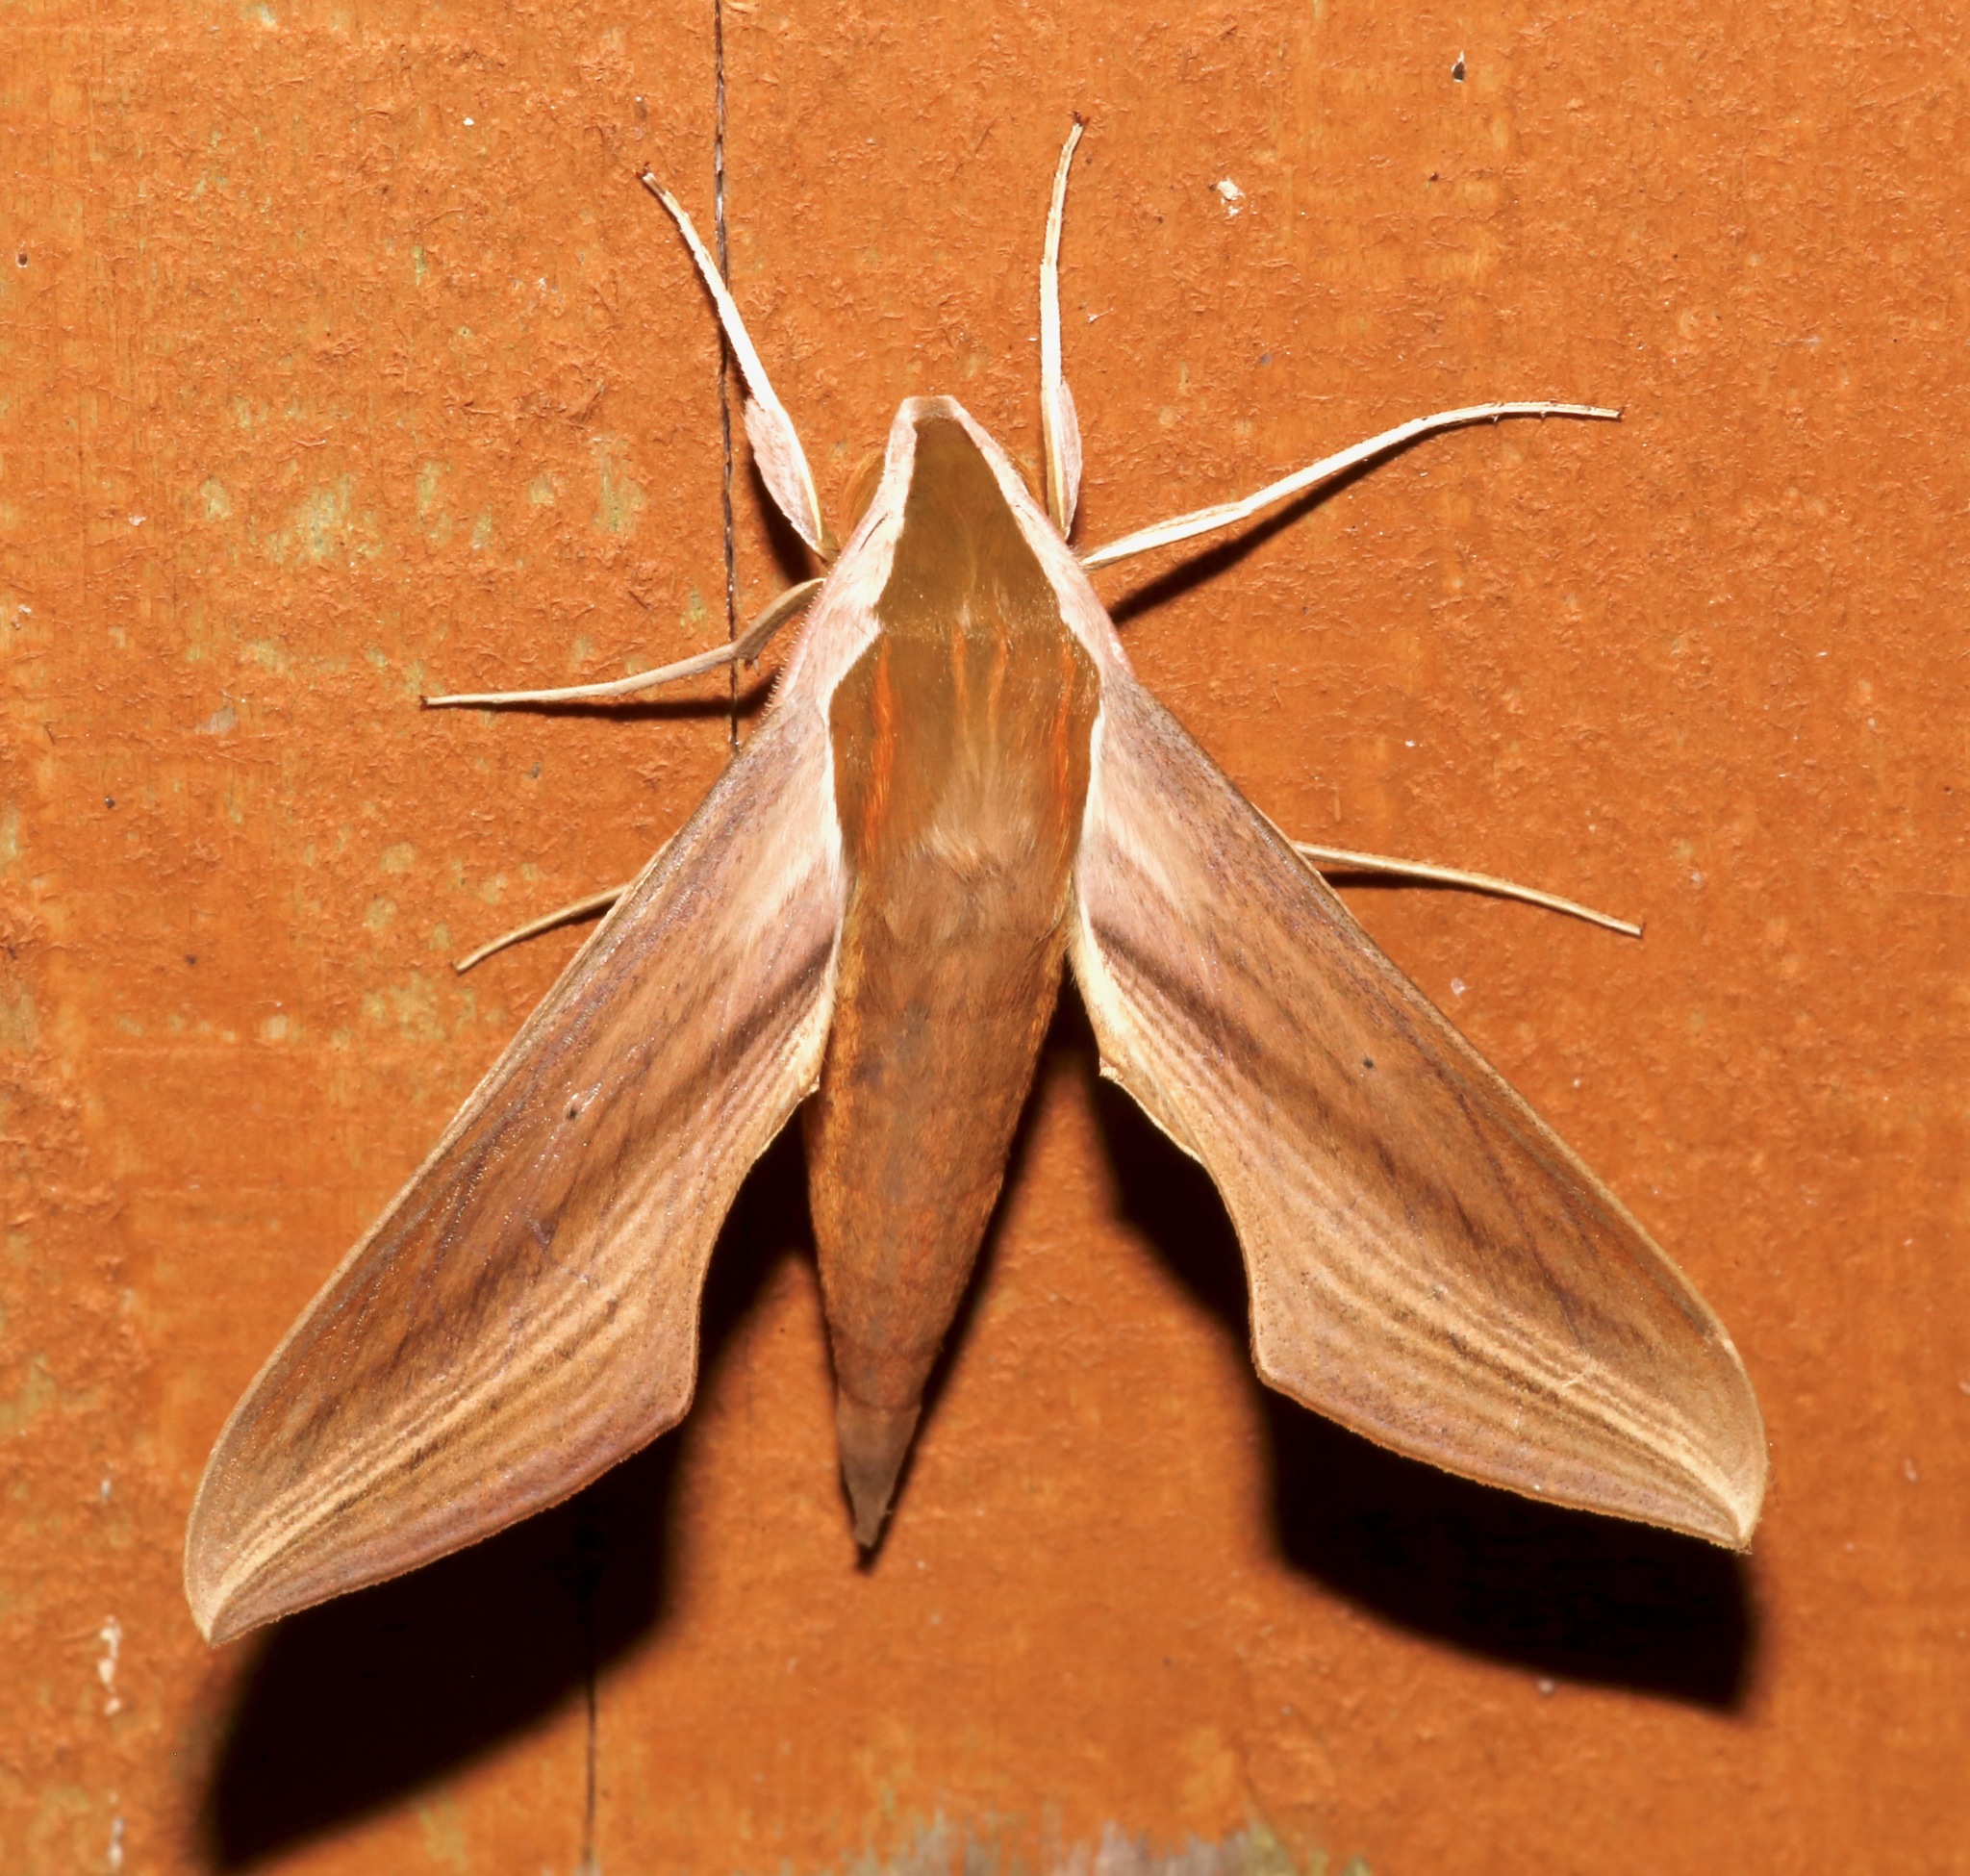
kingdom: Animalia
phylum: Arthropoda
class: Insecta
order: Lepidoptera
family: Sphingidae
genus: Xylophanes
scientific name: Xylophanes tersa
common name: Tersa sphinx
